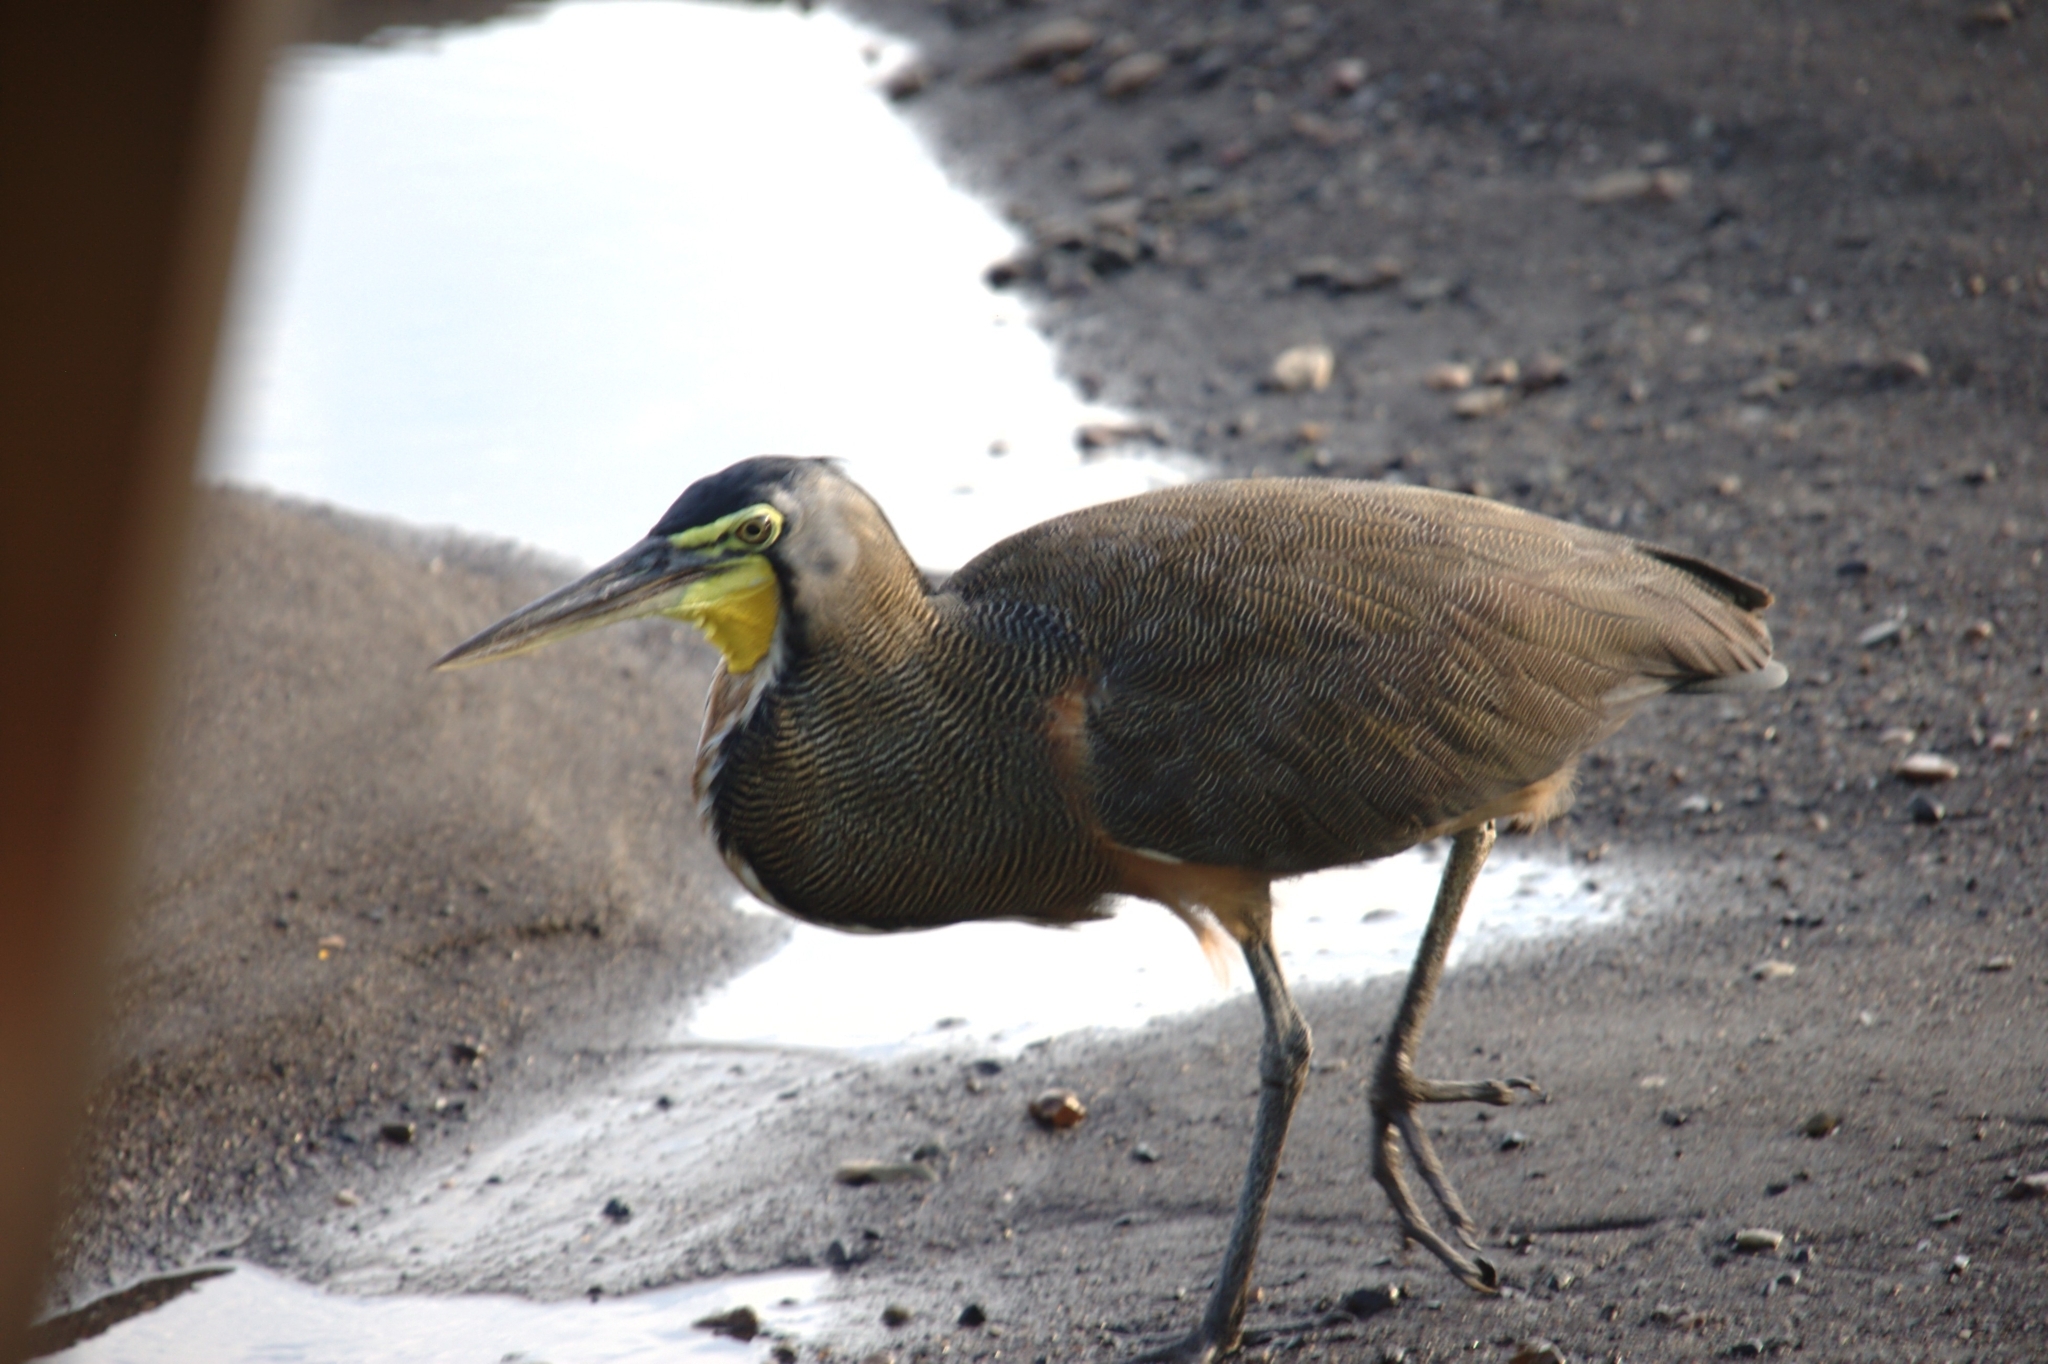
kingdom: Animalia
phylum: Chordata
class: Aves
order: Pelecaniformes
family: Ardeidae
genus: Tigrisoma
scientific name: Tigrisoma mexicanum
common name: Bare-throated tiger-heron
